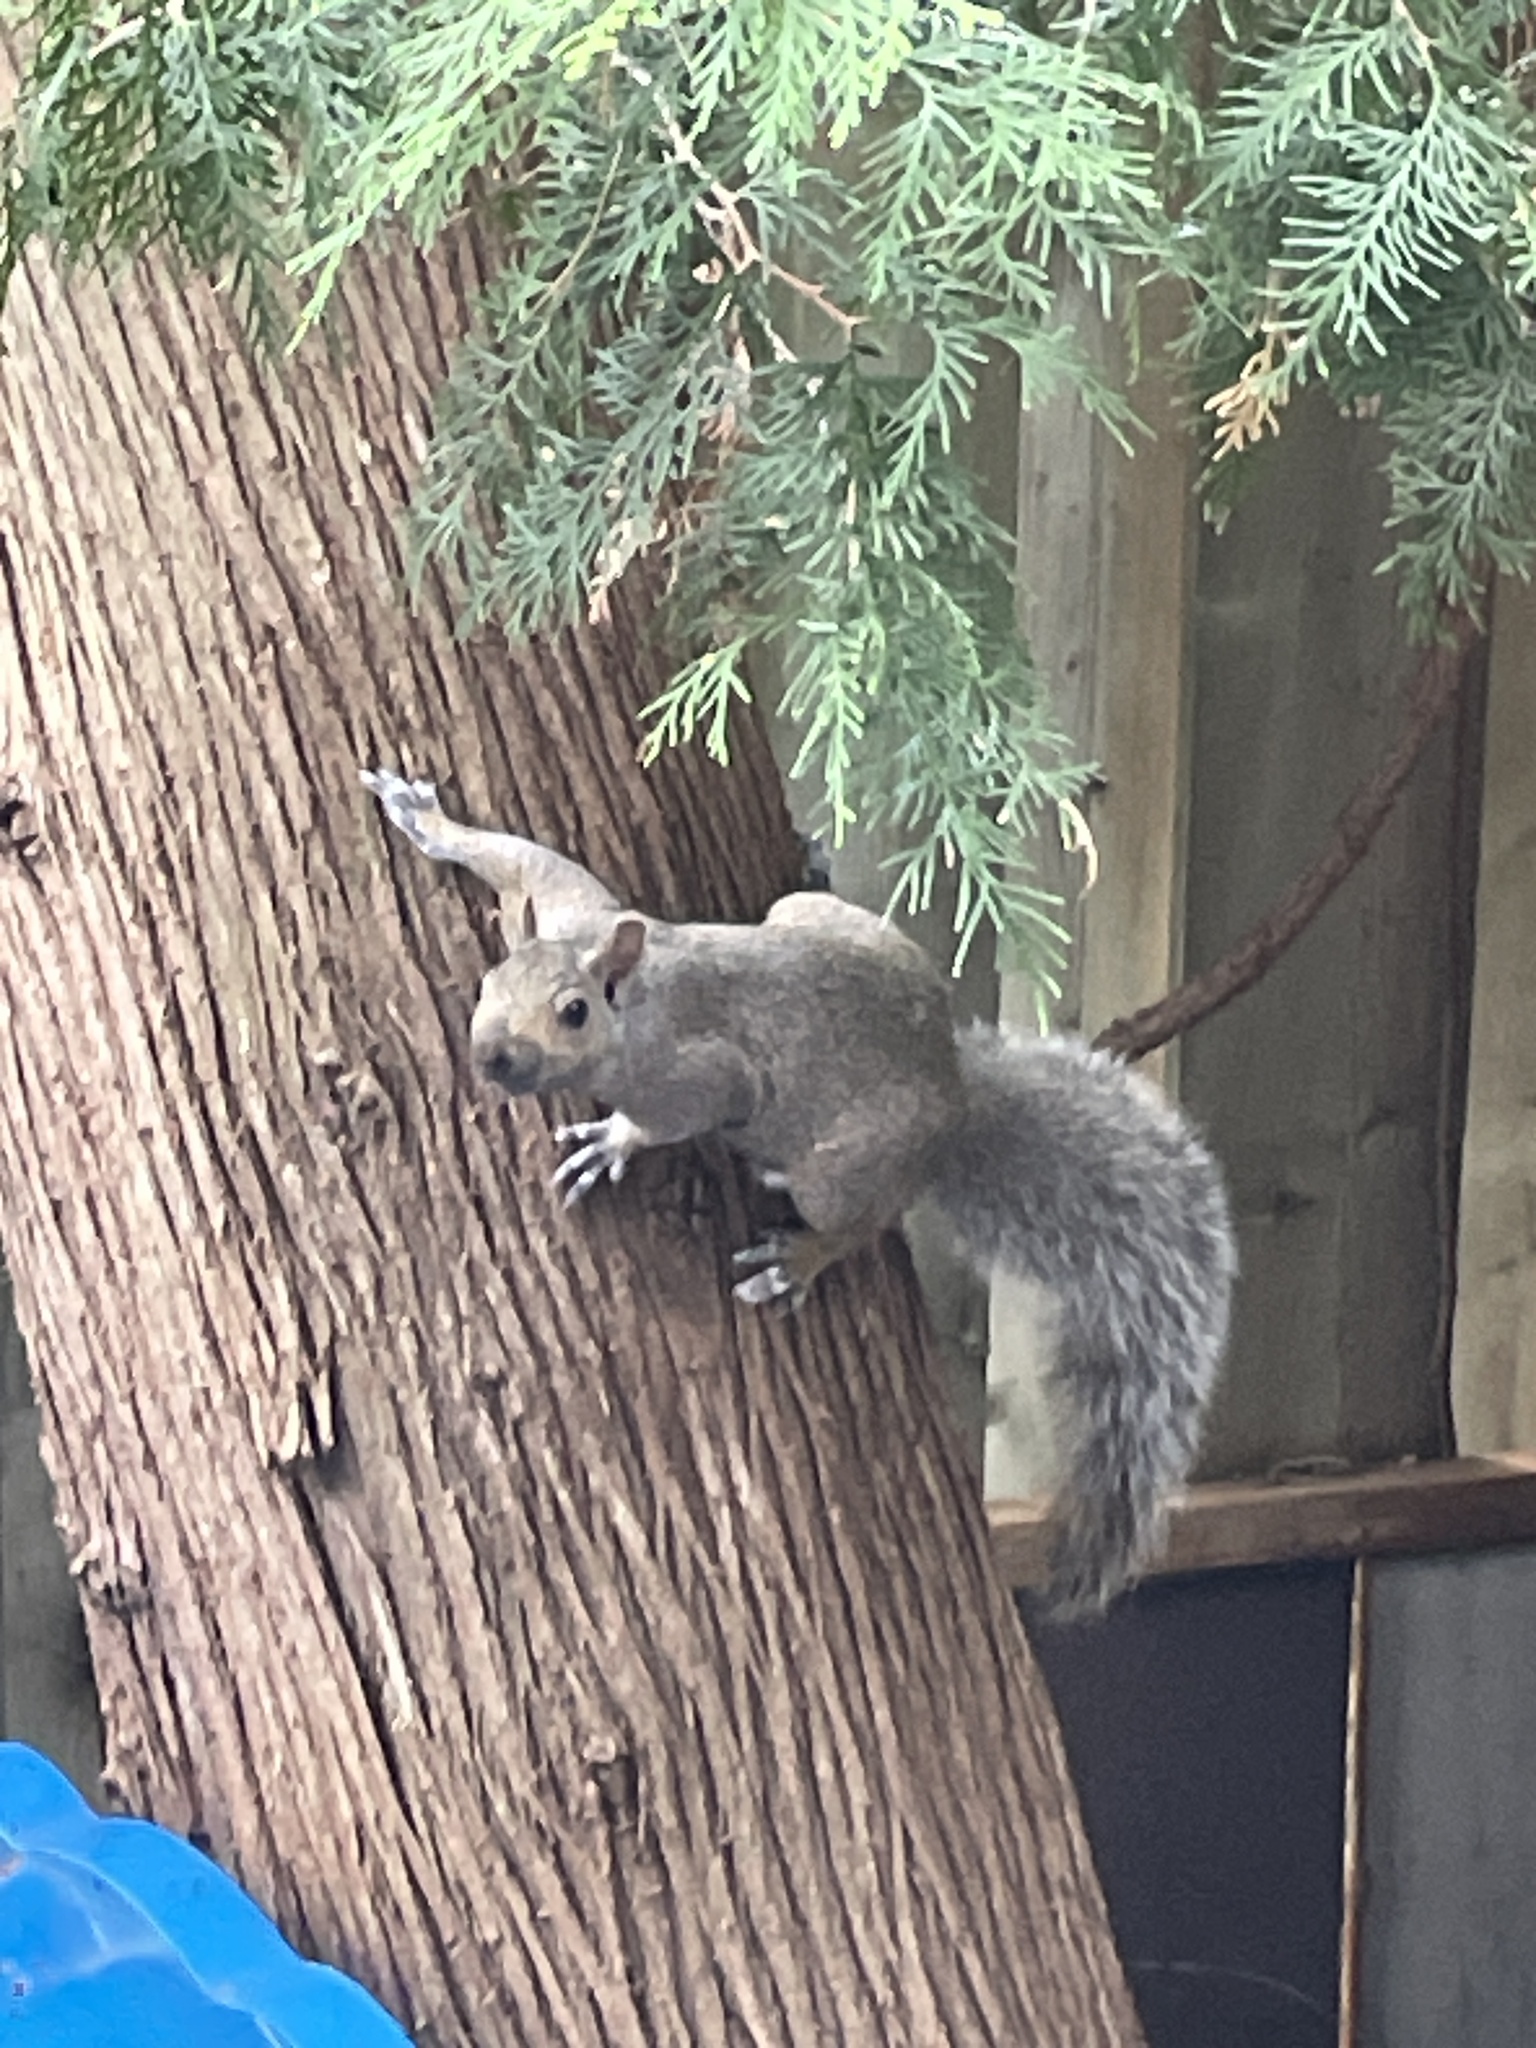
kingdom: Animalia
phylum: Chordata
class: Mammalia
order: Rodentia
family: Sciuridae
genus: Sciurus
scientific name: Sciurus carolinensis
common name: Eastern gray squirrel
